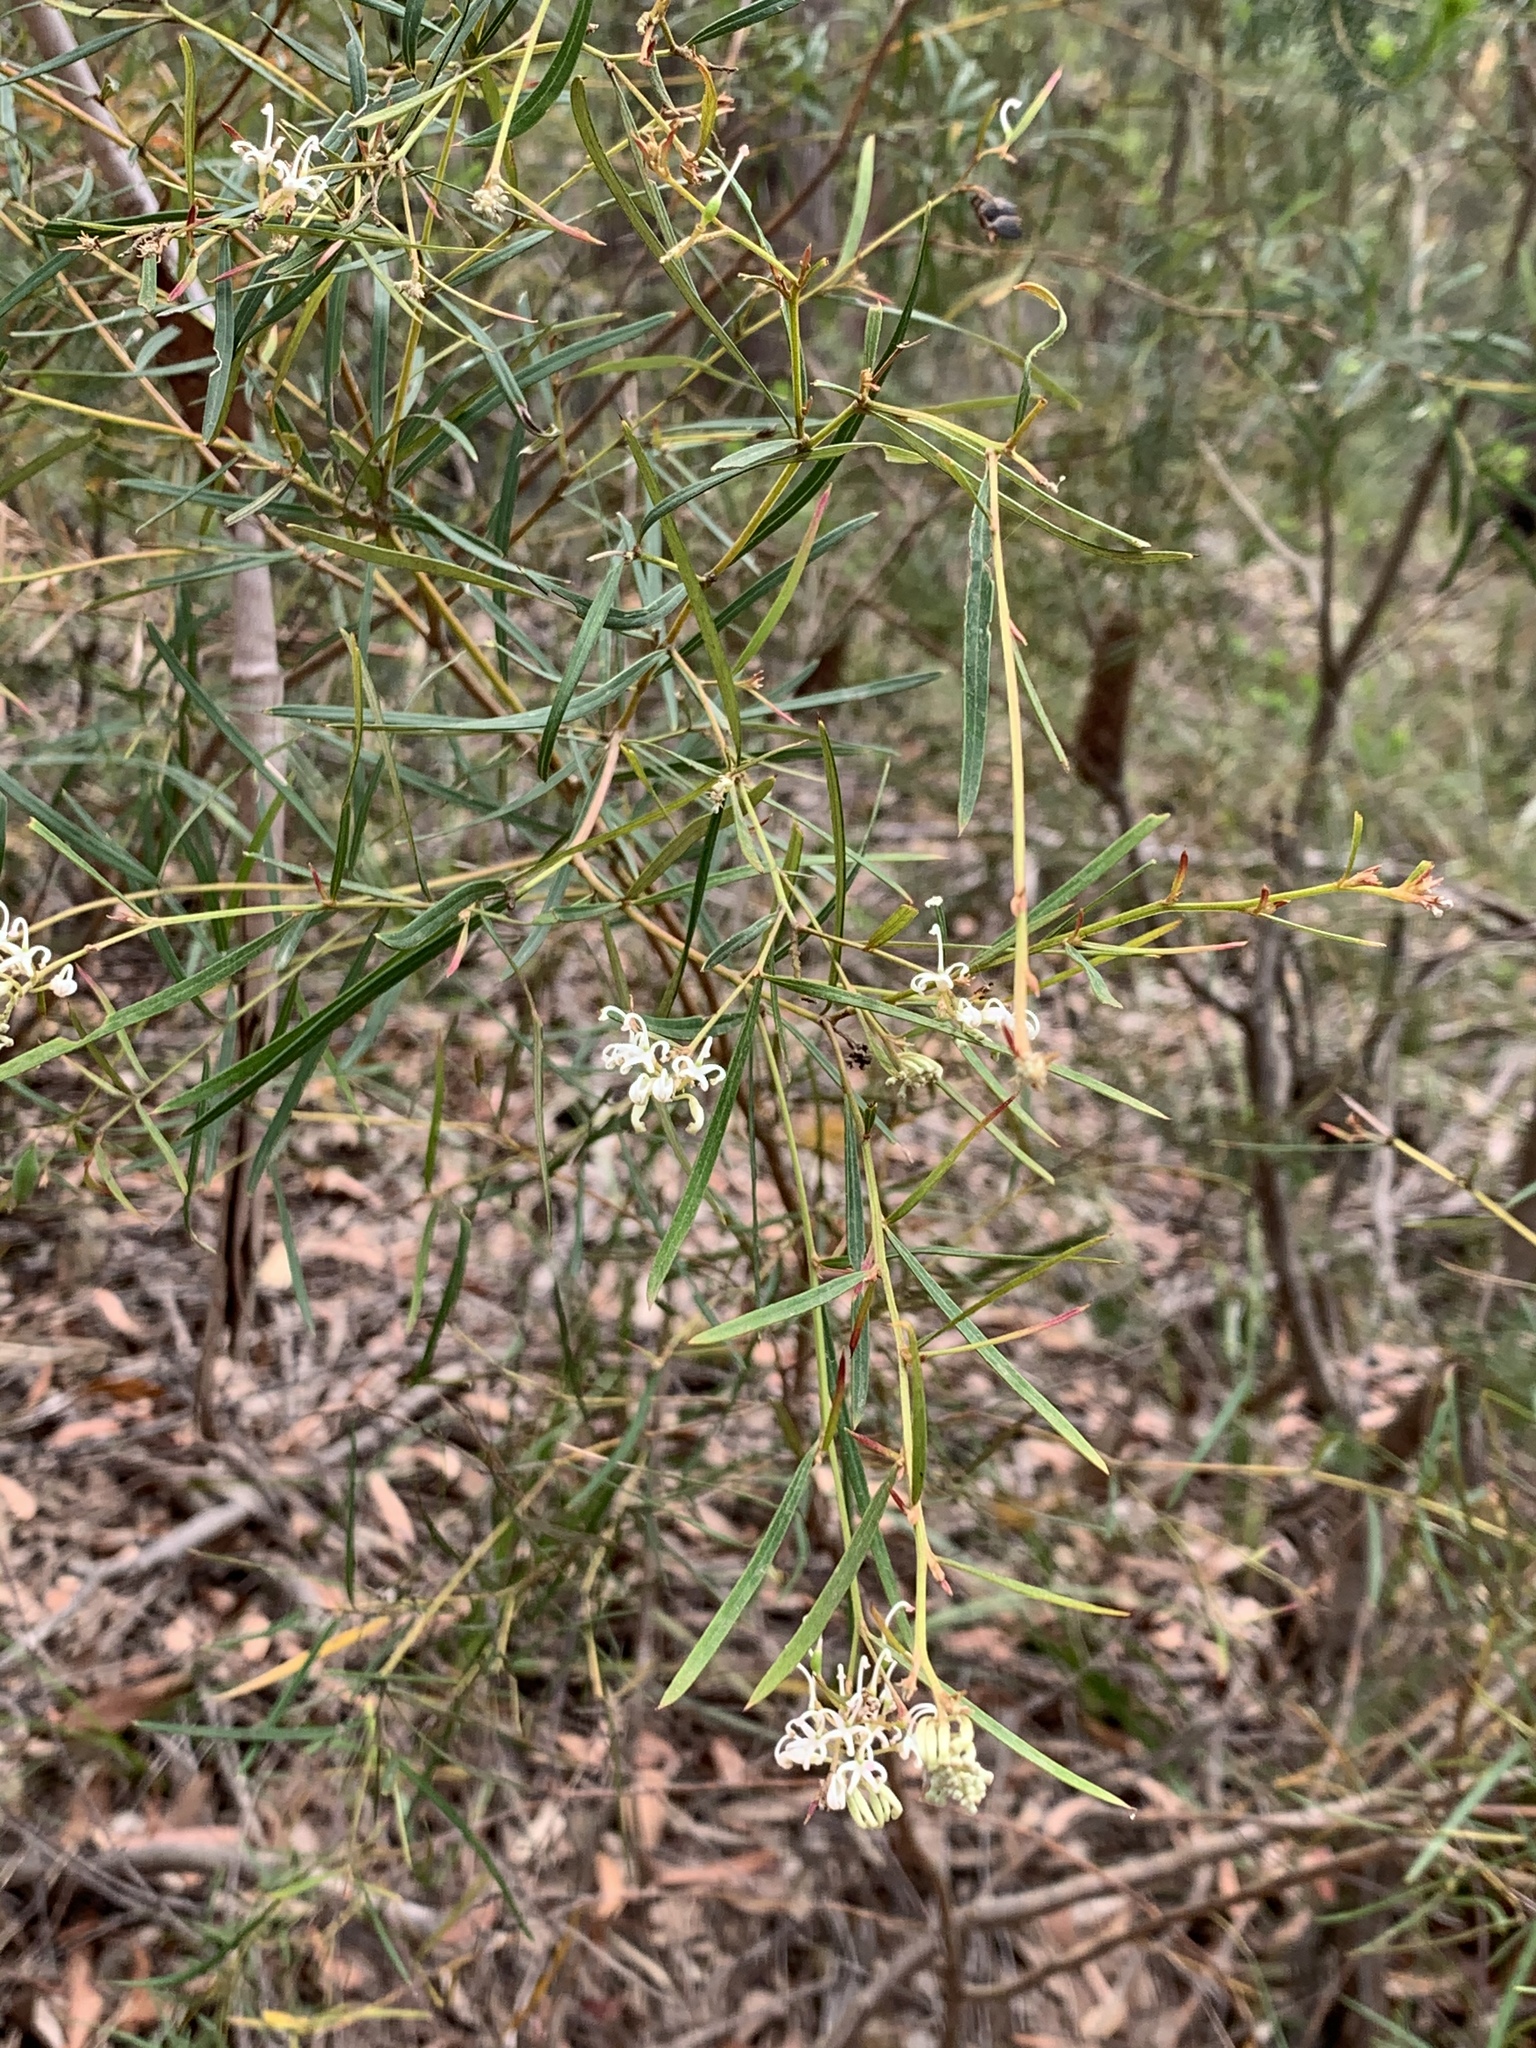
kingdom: Plantae
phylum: Tracheophyta
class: Magnoliopsida
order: Proteales
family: Proteaceae
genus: Grevillea
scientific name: Grevillea linearifolia
